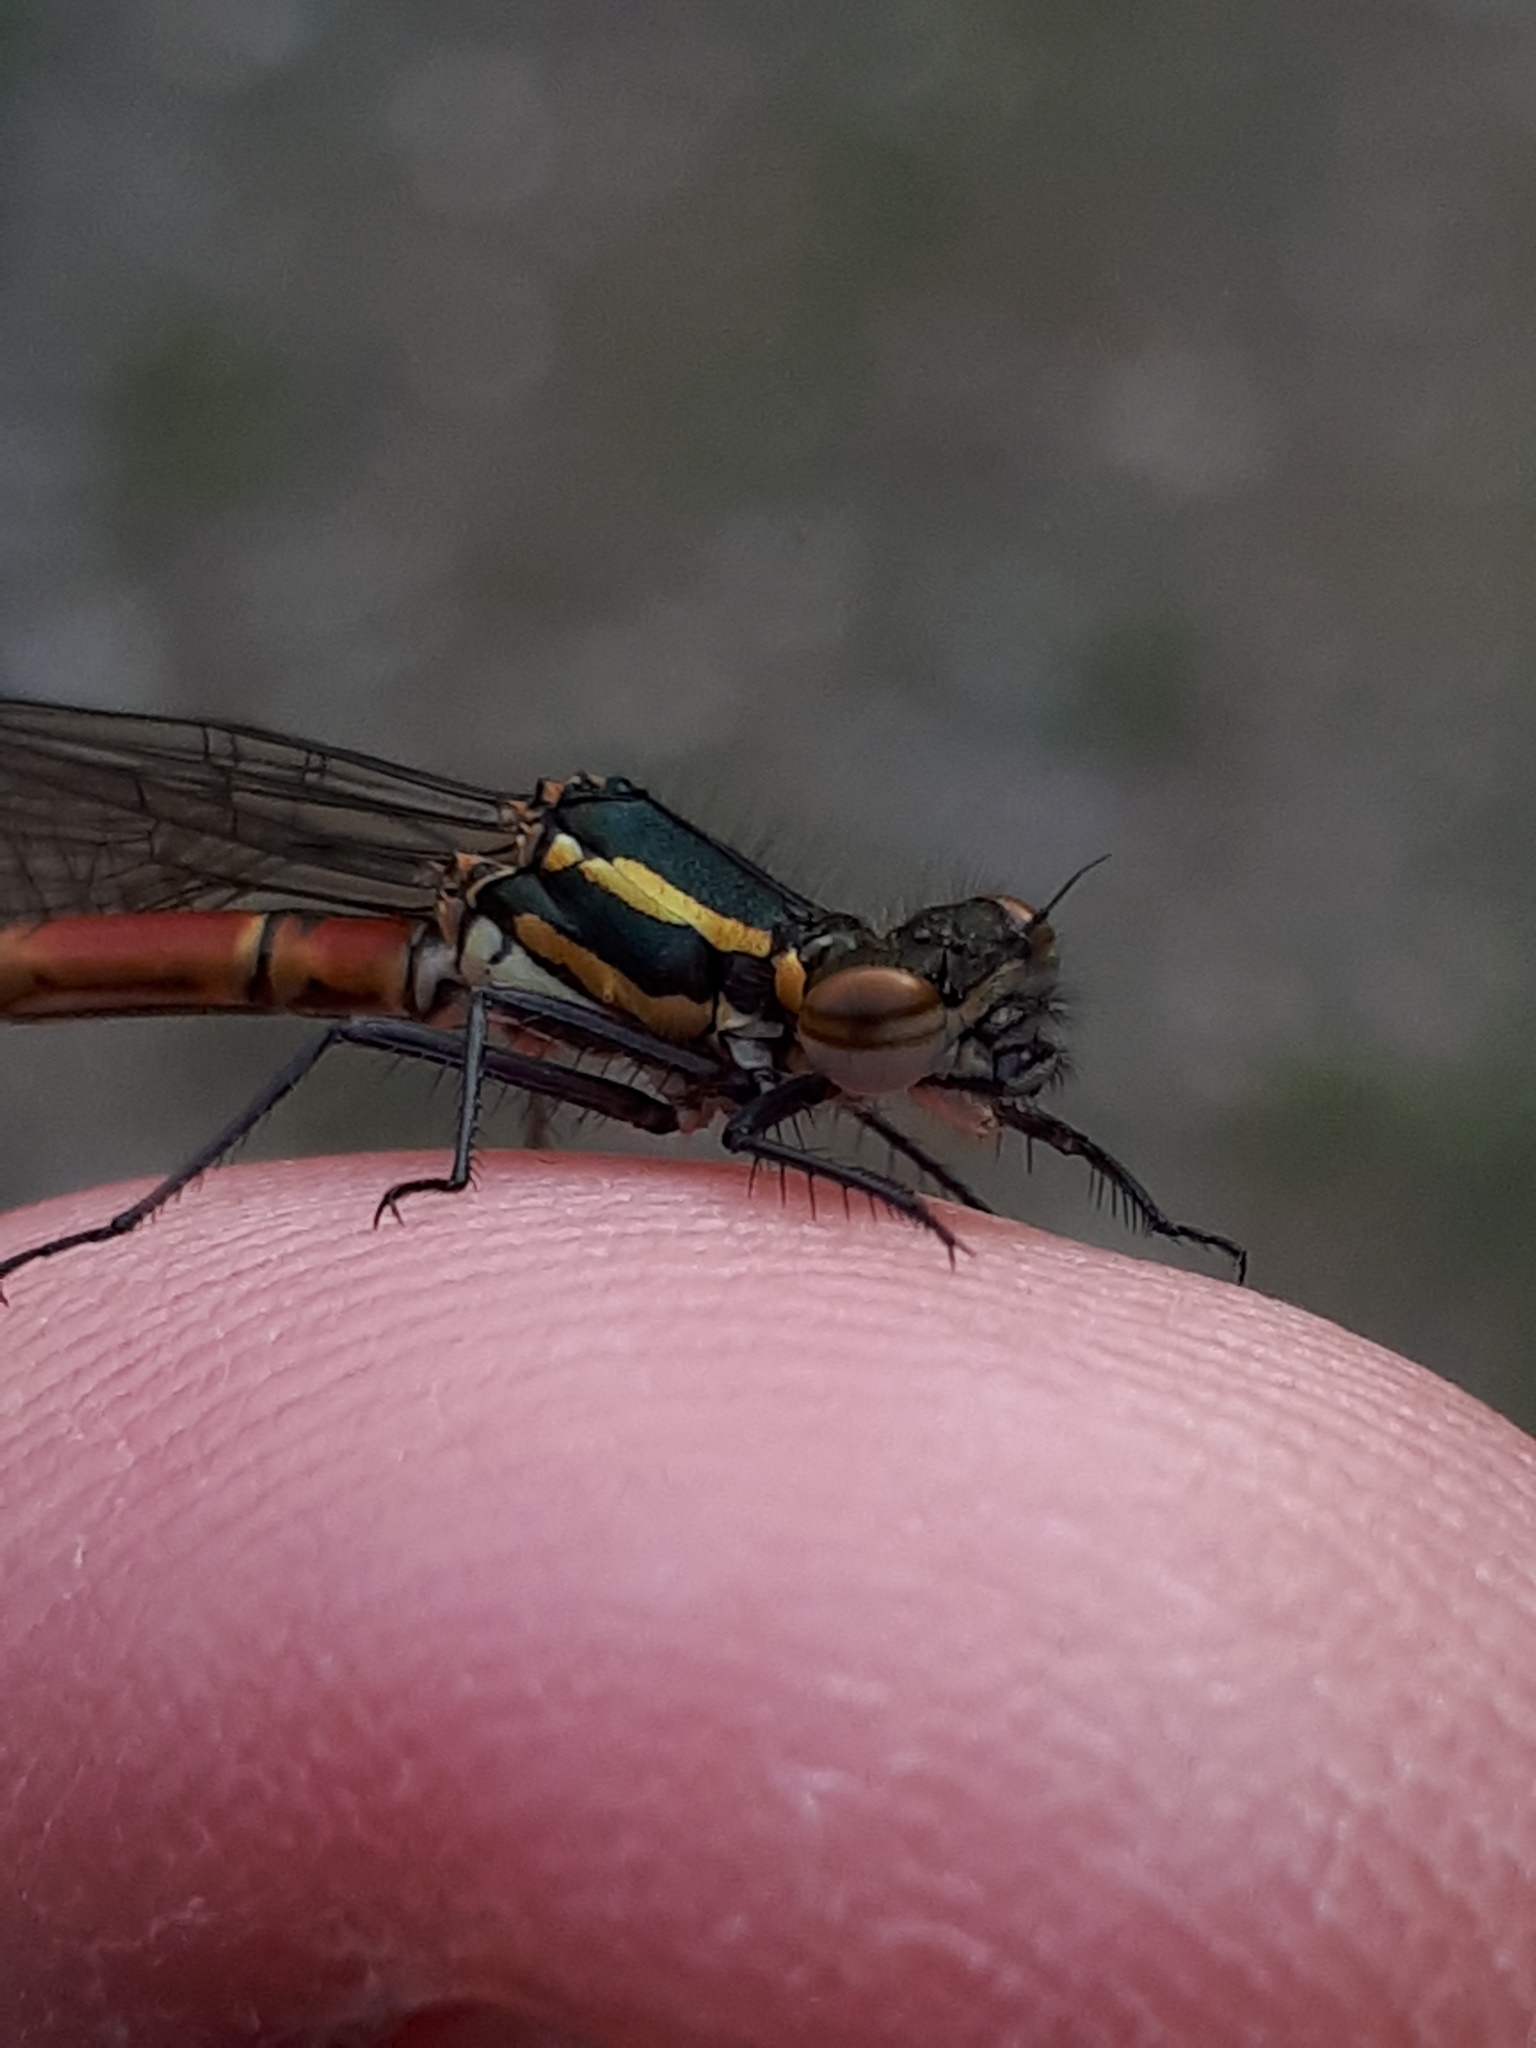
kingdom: Animalia
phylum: Arthropoda
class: Insecta
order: Odonata
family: Coenagrionidae
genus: Pyrrhosoma
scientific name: Pyrrhosoma nymphula
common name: Large red damsel
